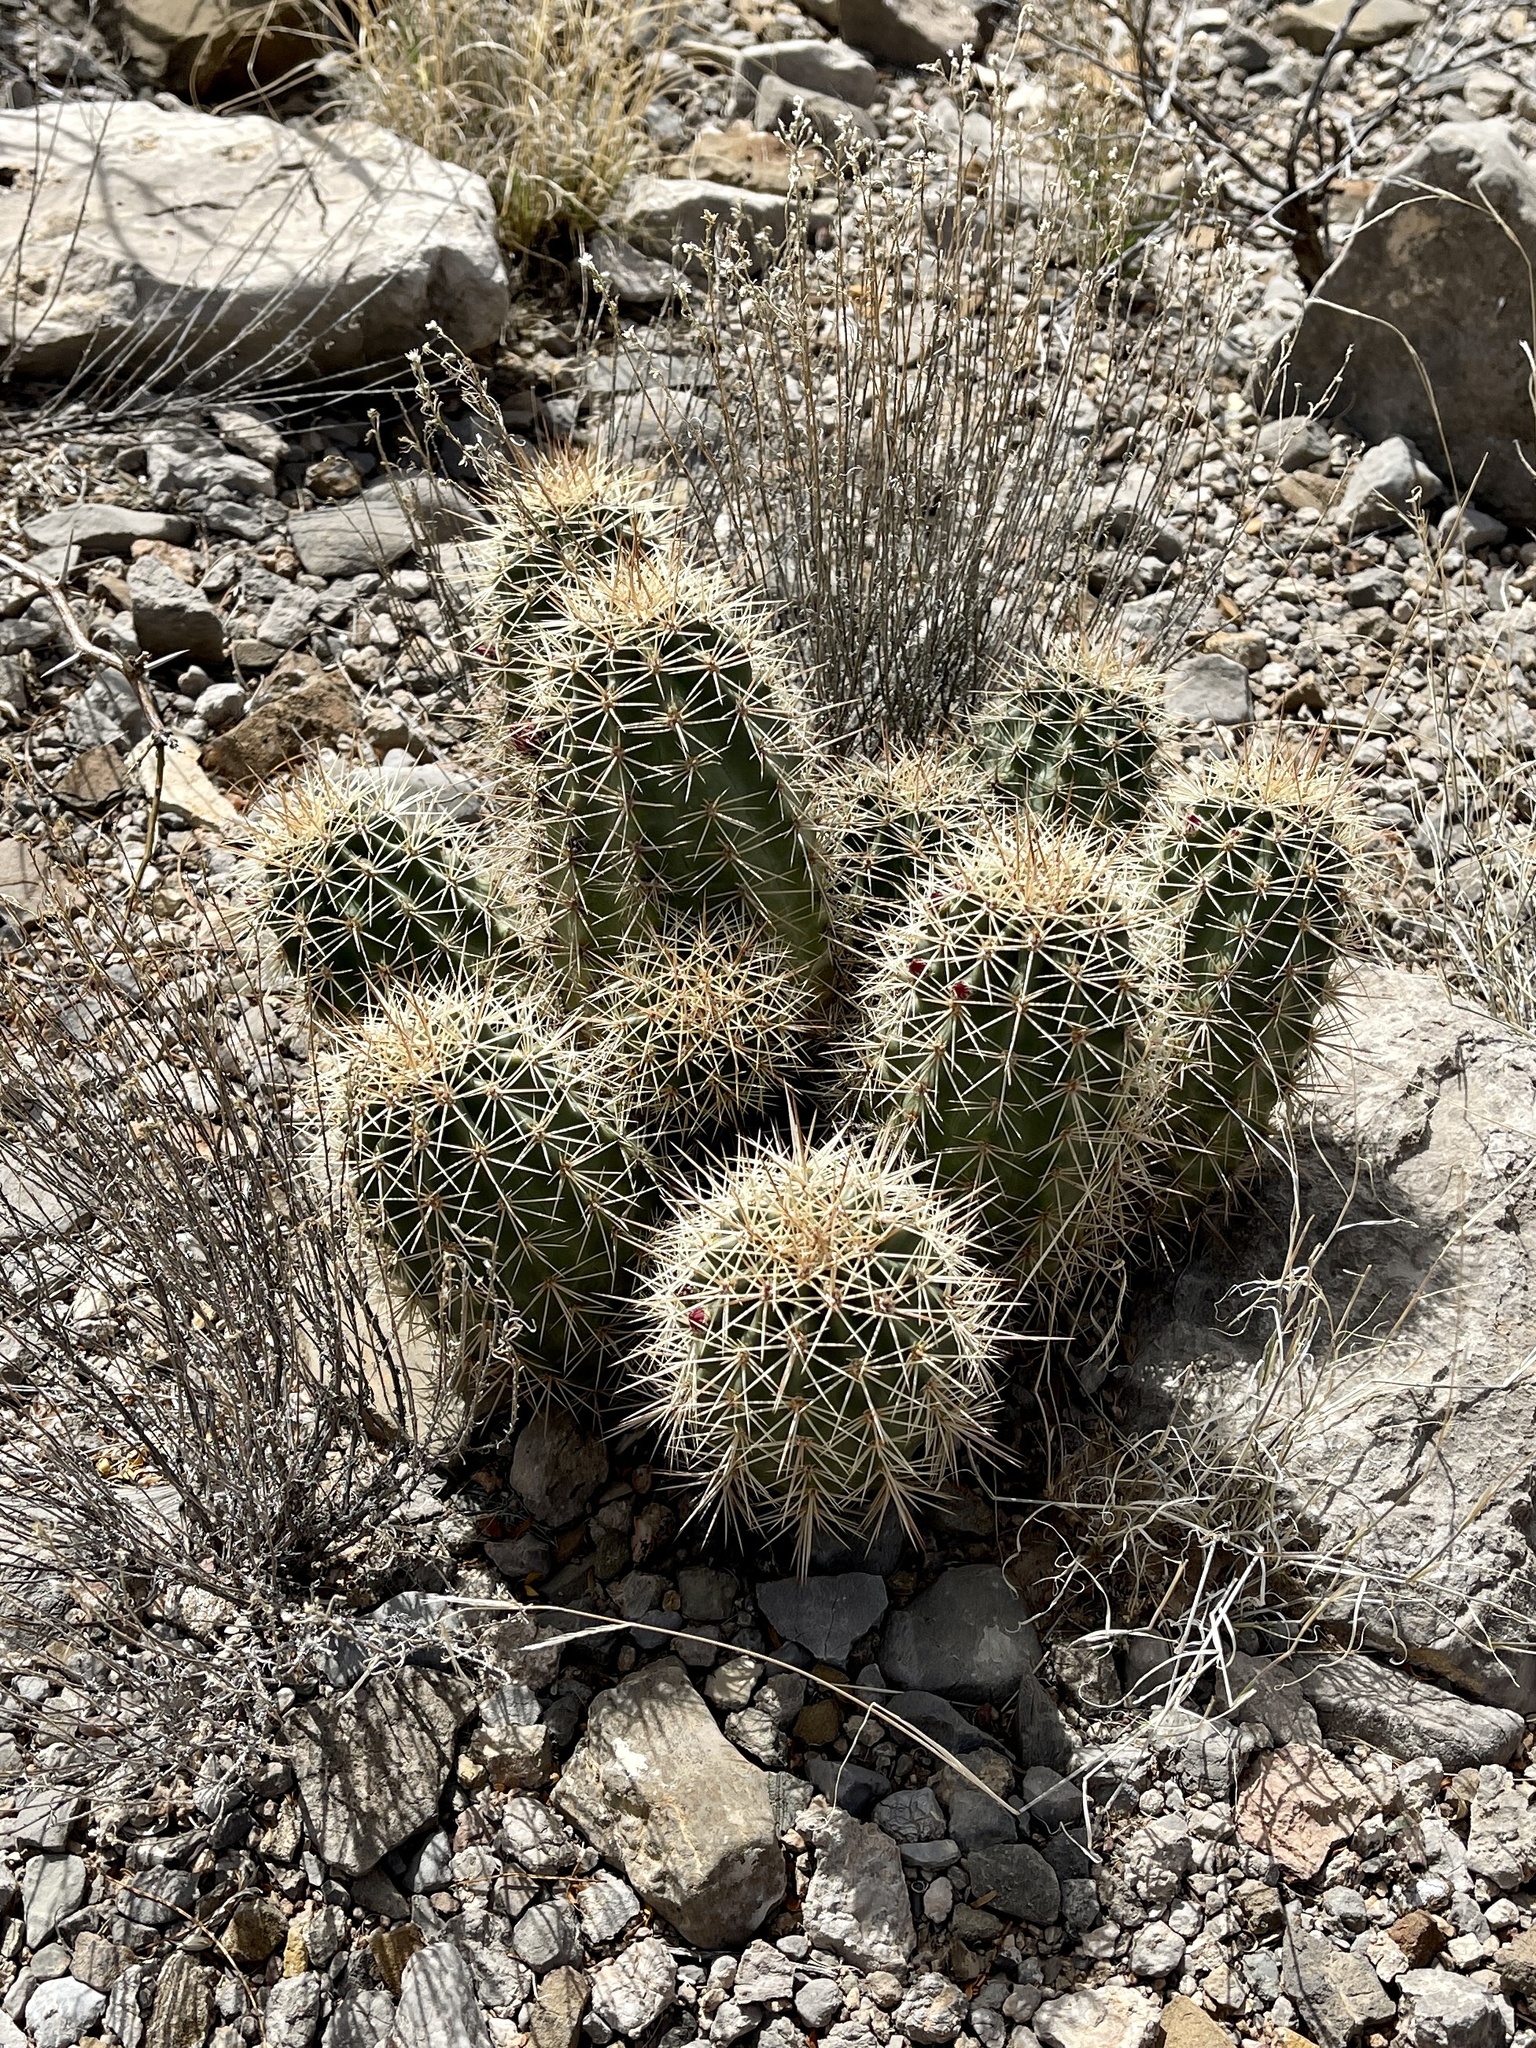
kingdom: Plantae
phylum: Tracheophyta
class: Magnoliopsida
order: Caryophyllales
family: Cactaceae
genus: Echinocereus
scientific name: Echinocereus coccineus
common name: Scarlet hedgehog cactus
